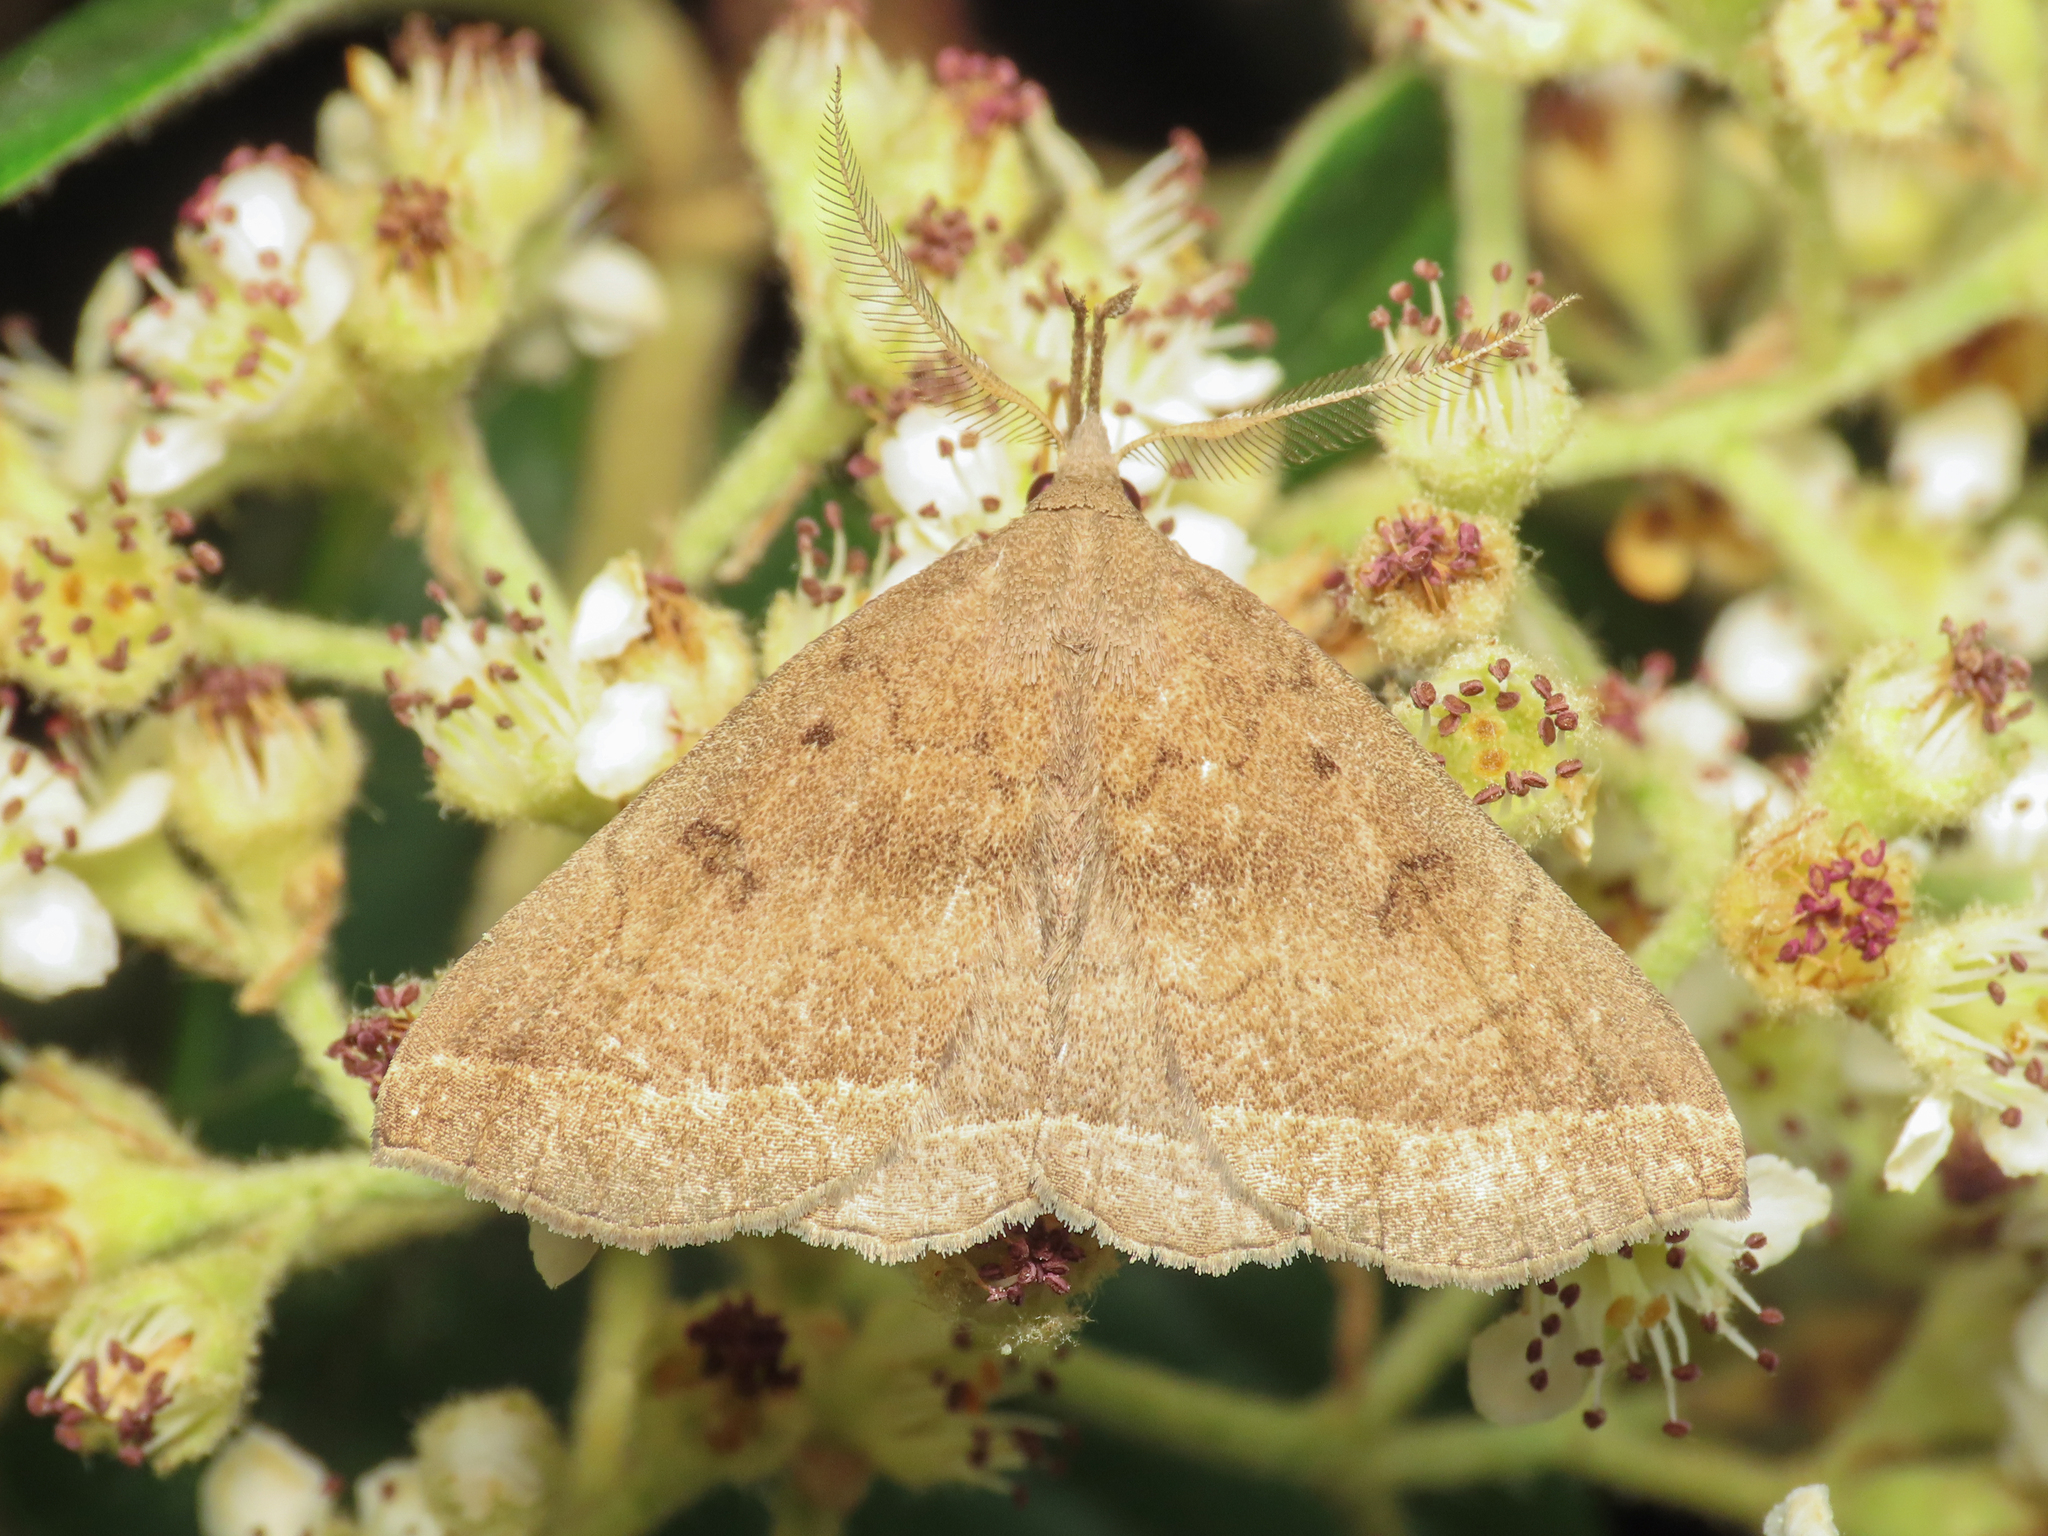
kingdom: Animalia
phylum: Arthropoda
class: Insecta
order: Lepidoptera
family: Erebidae
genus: Pechipogo
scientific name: Pechipogo plumigeralis
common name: Plumed fan-foot
